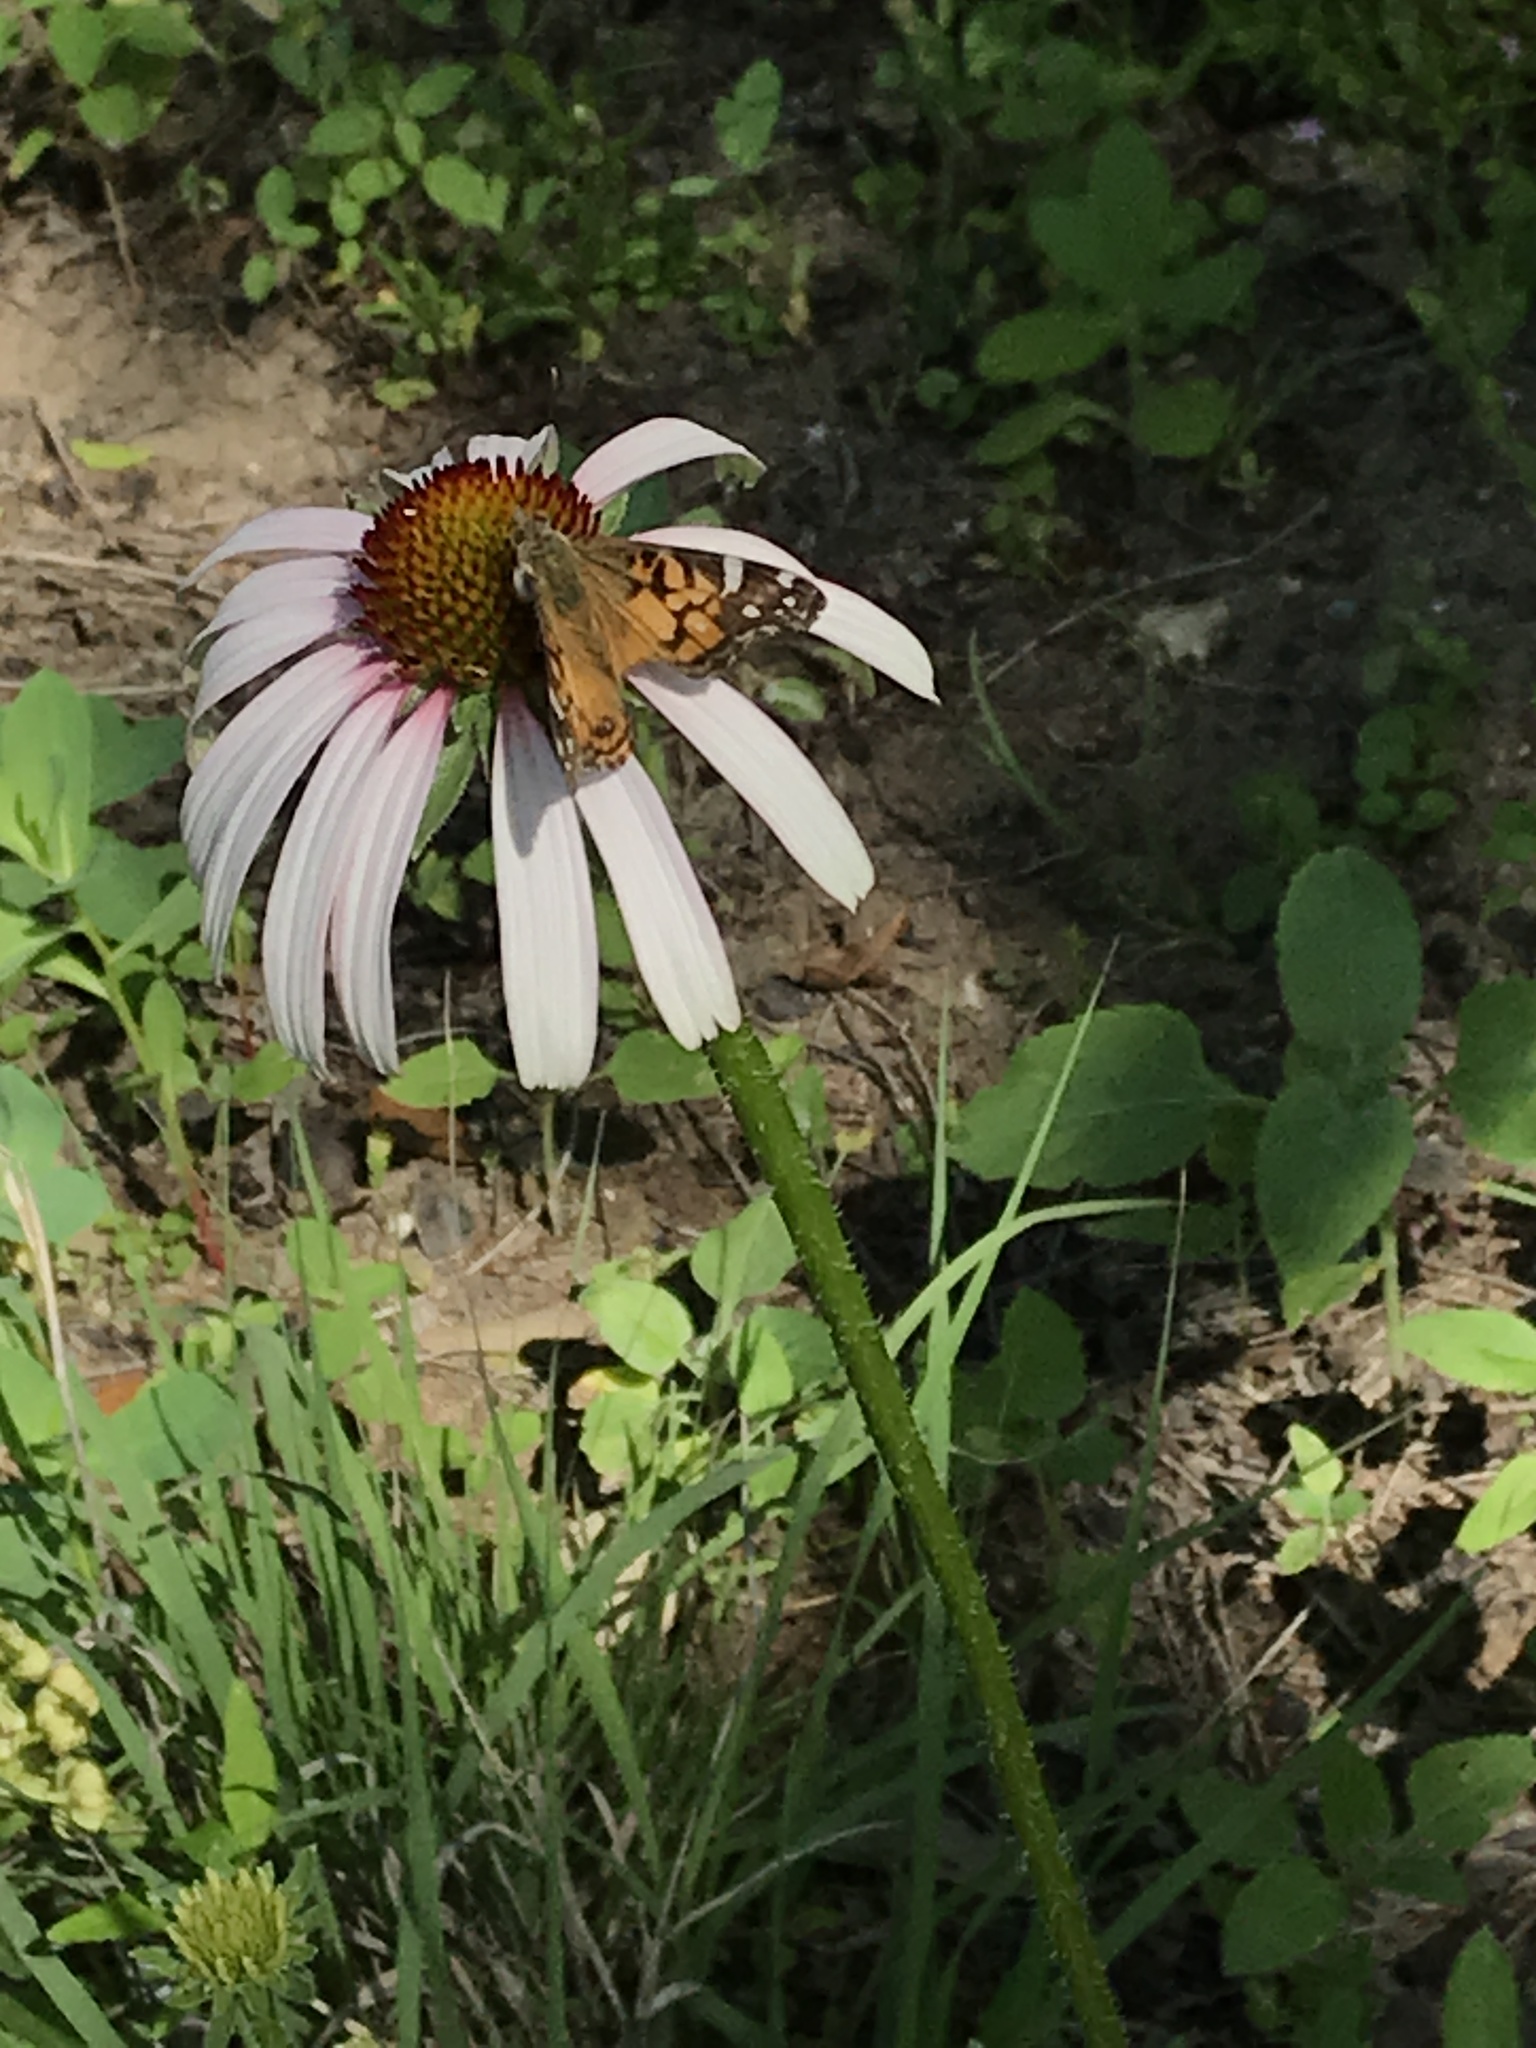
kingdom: Animalia
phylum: Arthropoda
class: Insecta
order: Lepidoptera
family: Nymphalidae
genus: Vanessa
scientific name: Vanessa virginiensis
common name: American lady
